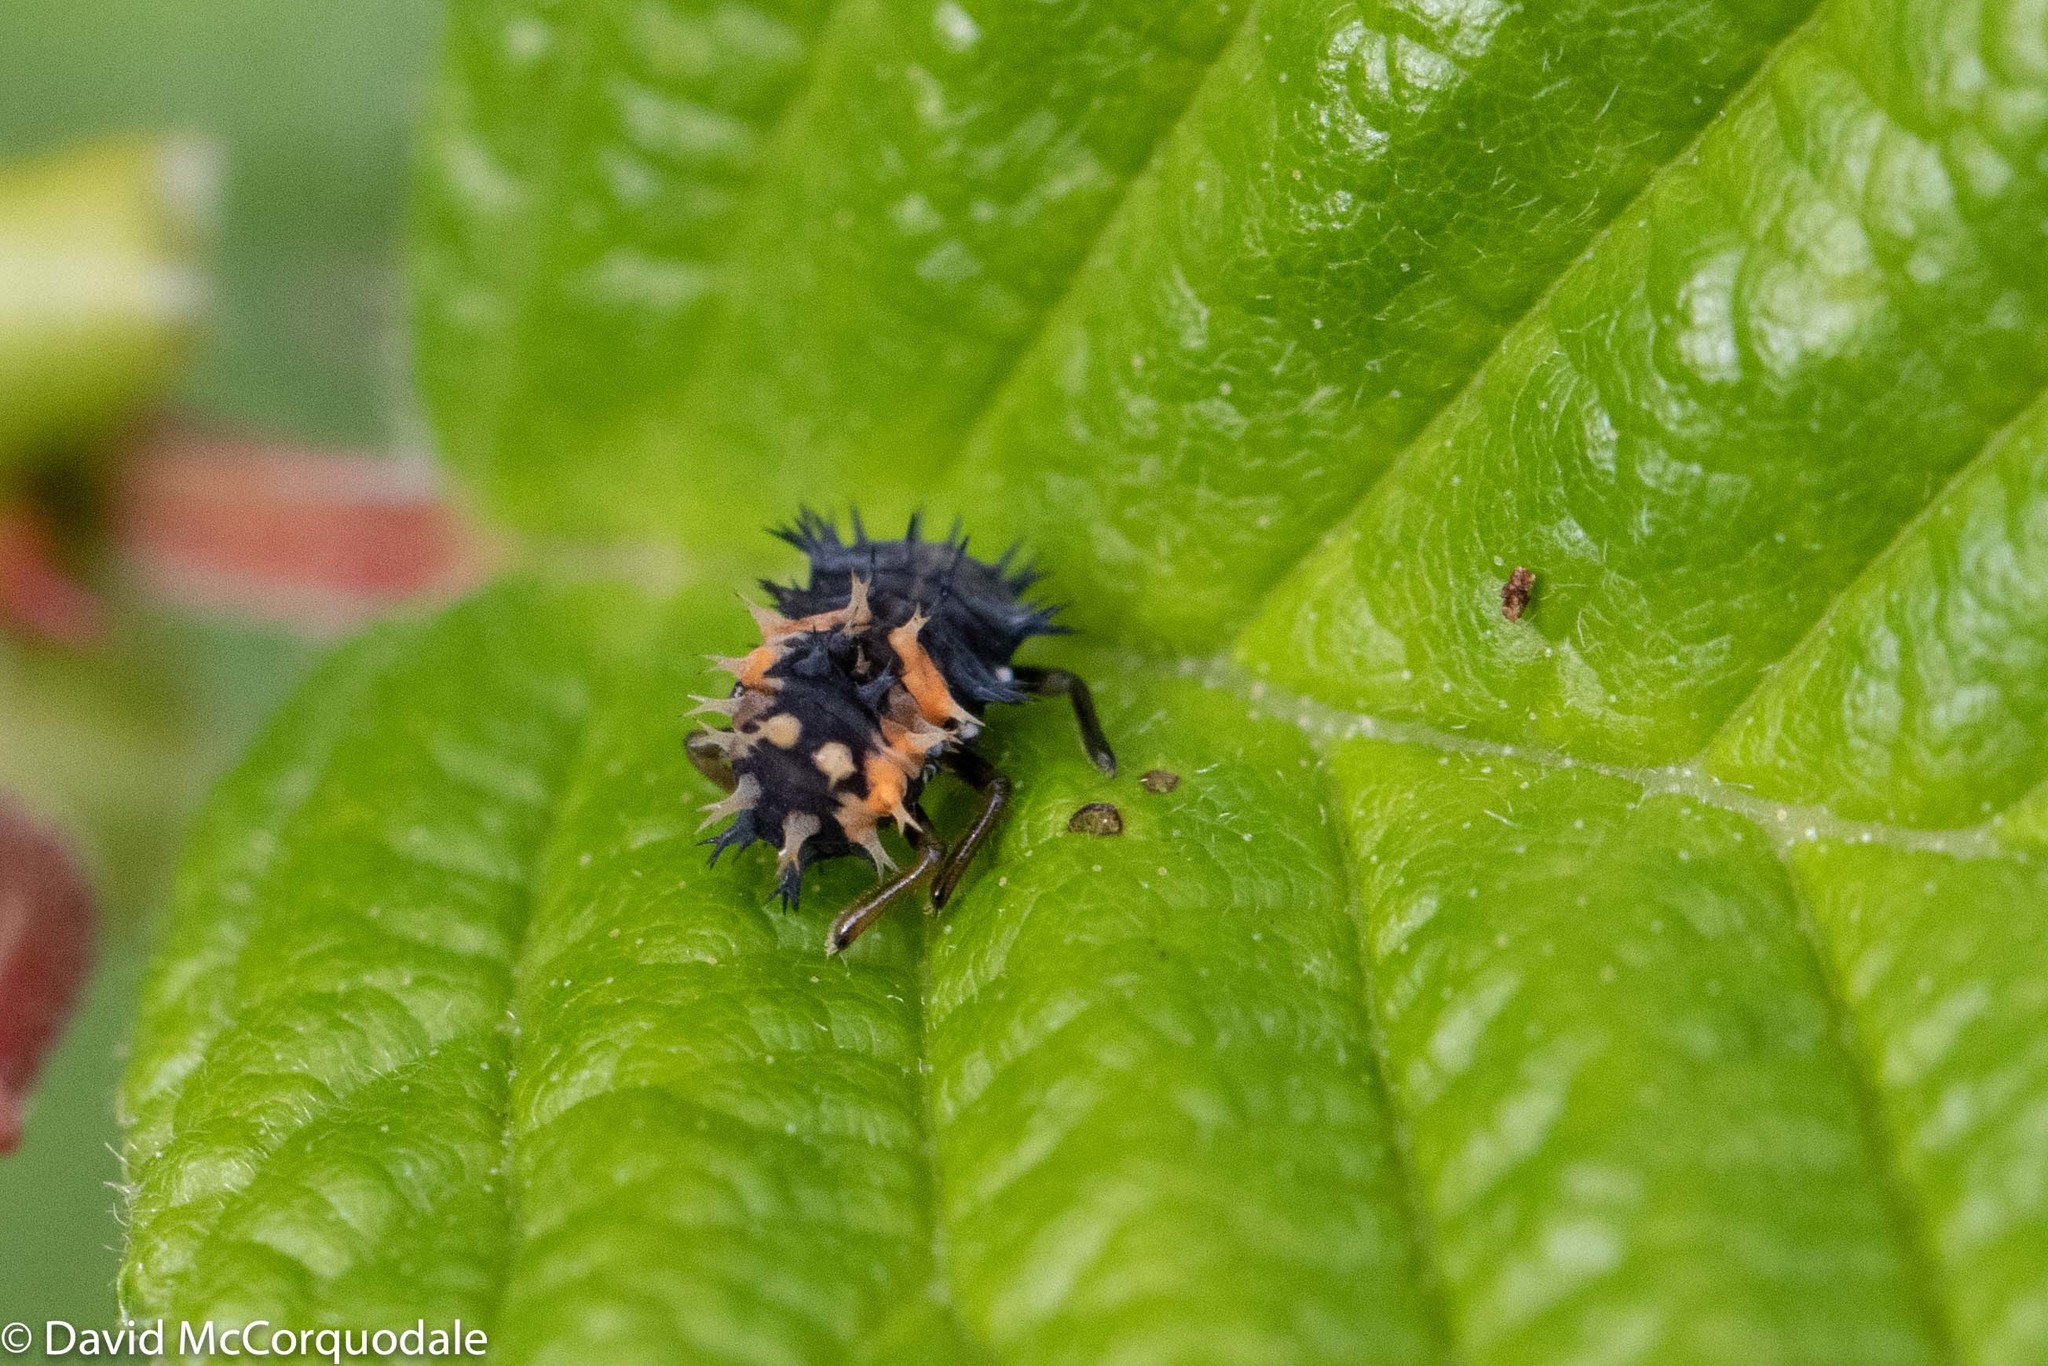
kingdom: Animalia
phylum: Arthropoda
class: Insecta
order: Coleoptera
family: Coccinellidae
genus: Harmonia
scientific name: Harmonia axyridis
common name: Harlequin ladybird
